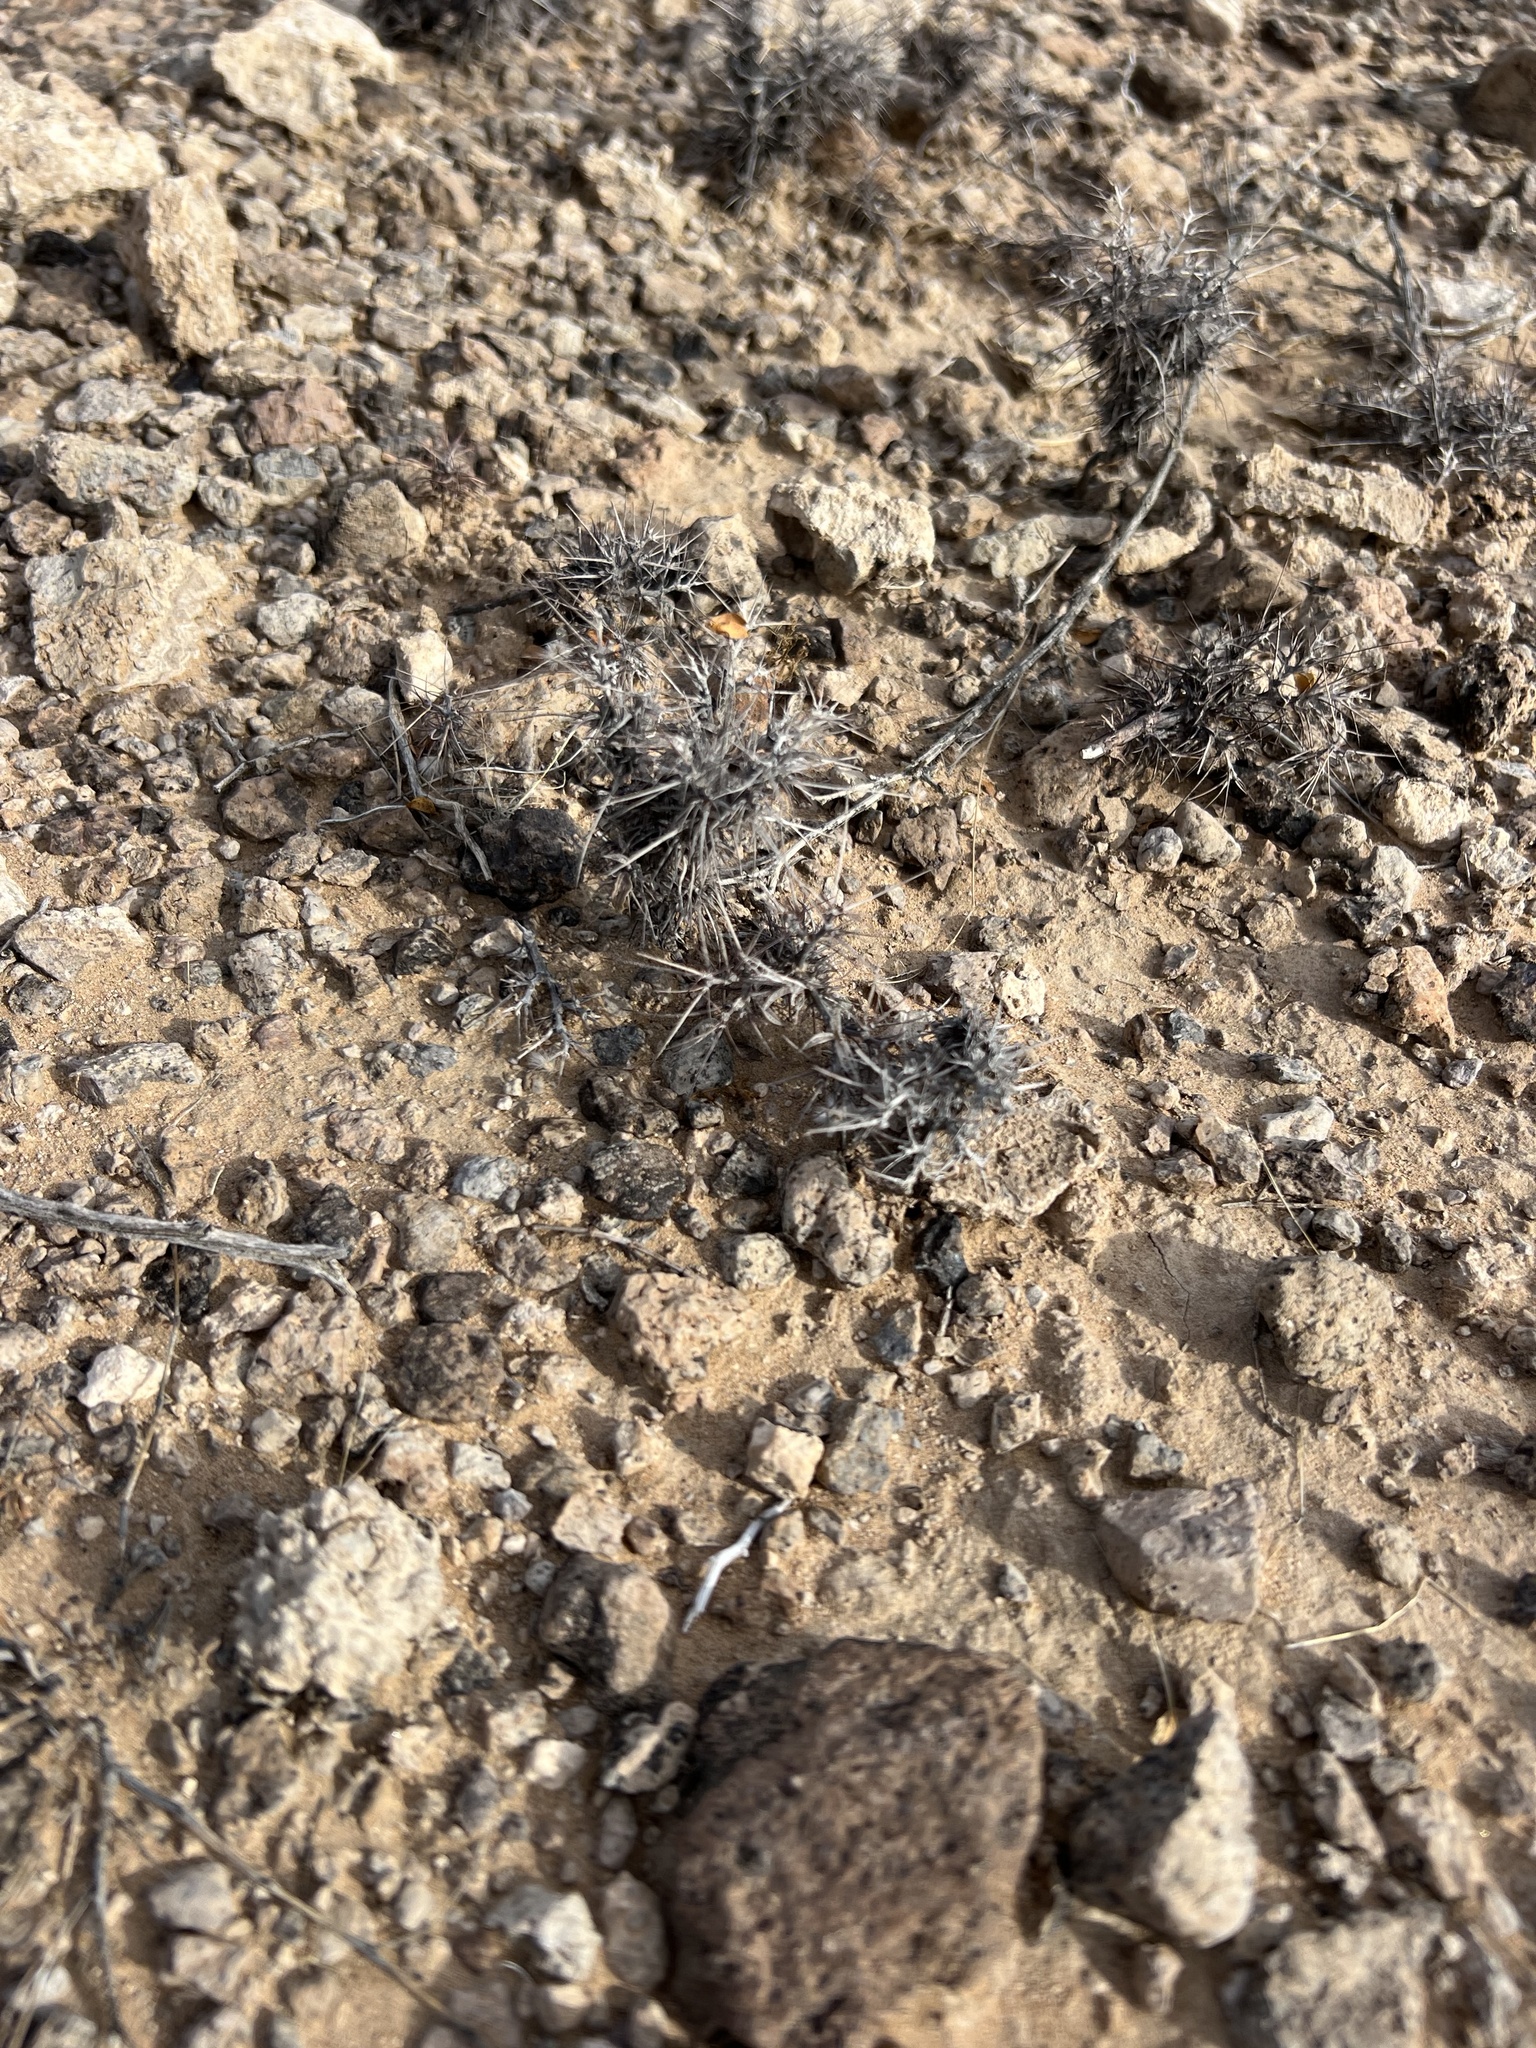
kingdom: Plantae
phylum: Tracheophyta
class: Magnoliopsida
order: Caryophyllales
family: Polygonaceae
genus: Chorizanthe
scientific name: Chorizanthe rigida
